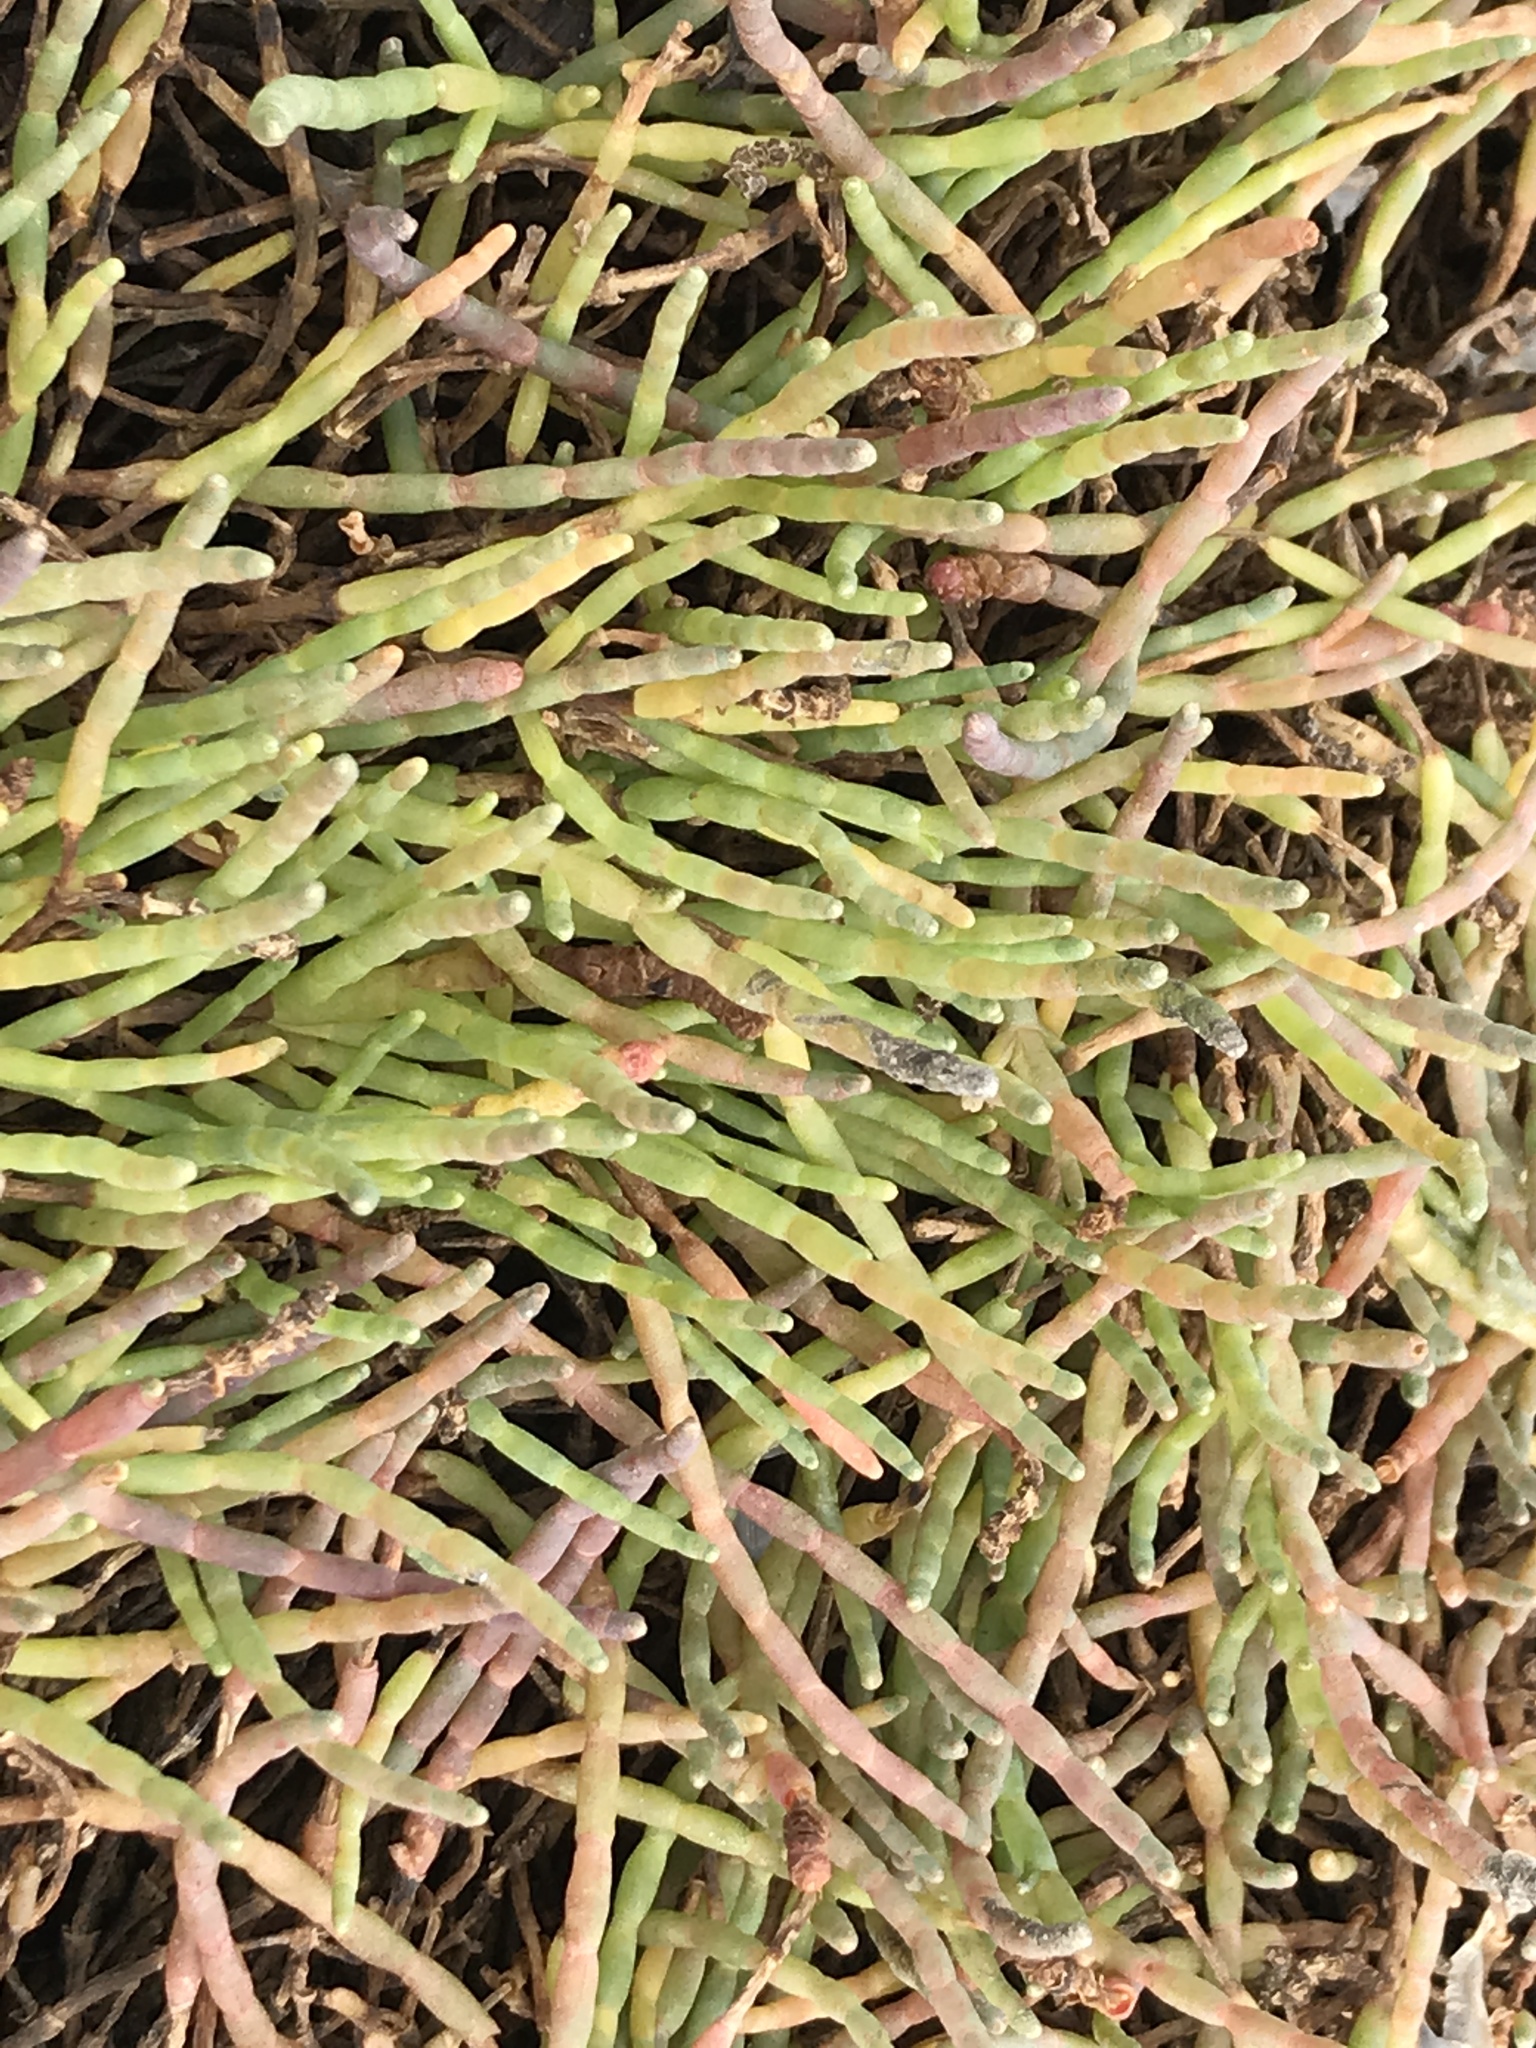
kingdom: Plantae
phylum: Tracheophyta
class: Magnoliopsida
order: Caryophyllales
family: Amaranthaceae
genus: Salicornia
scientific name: Salicornia pacifica
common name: Pacific glasswort
